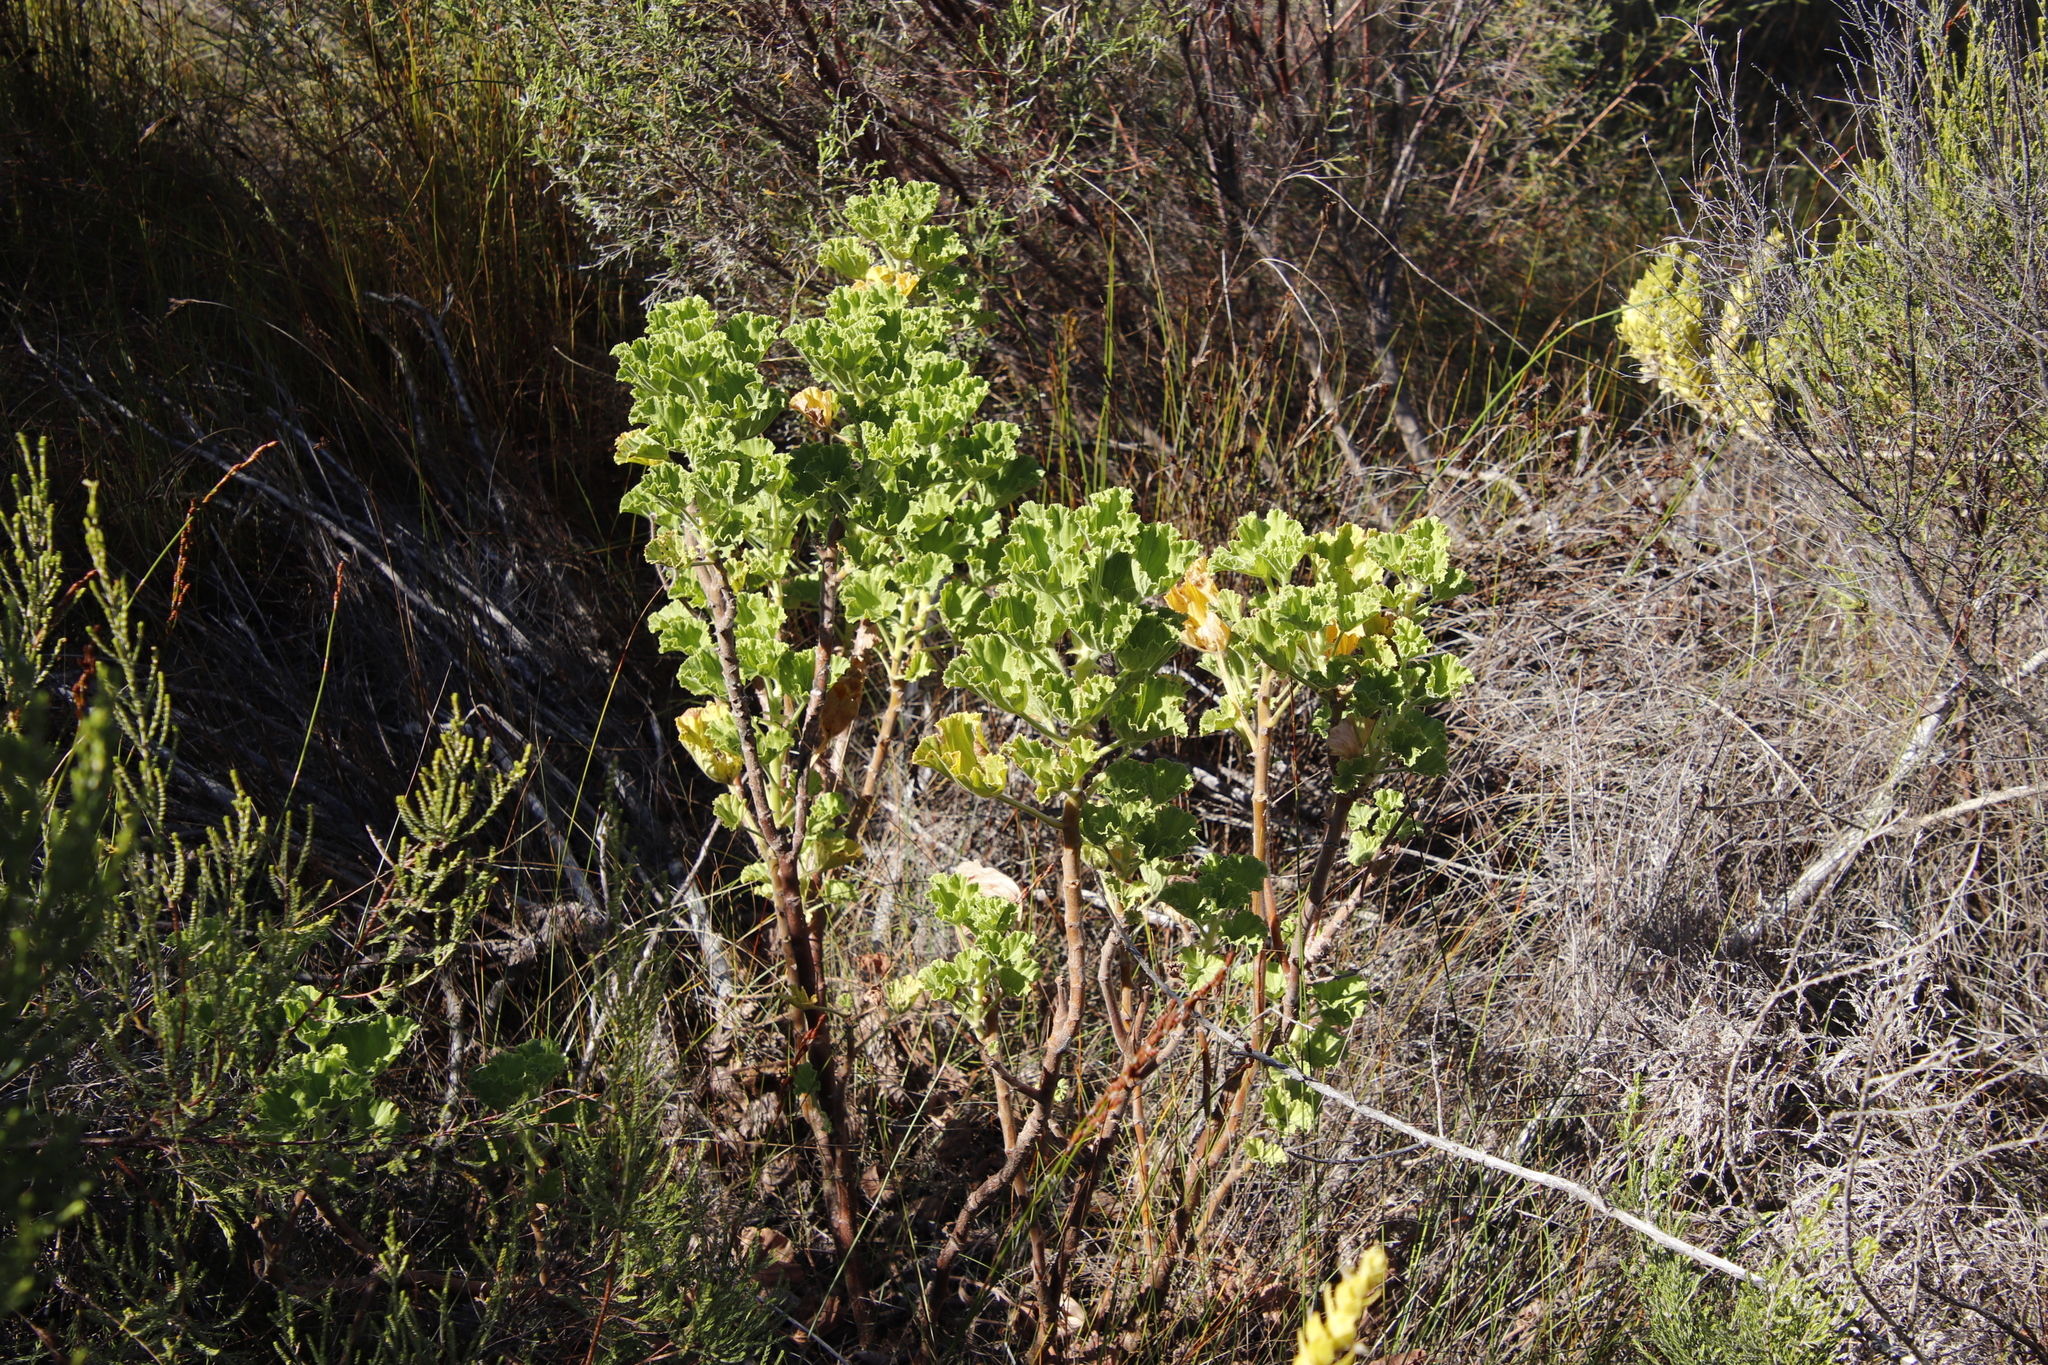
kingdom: Plantae
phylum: Tracheophyta
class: Magnoliopsida
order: Geraniales
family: Geraniaceae
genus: Pelargonium
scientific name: Pelargonium cucullatum
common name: Tree pelargonium
